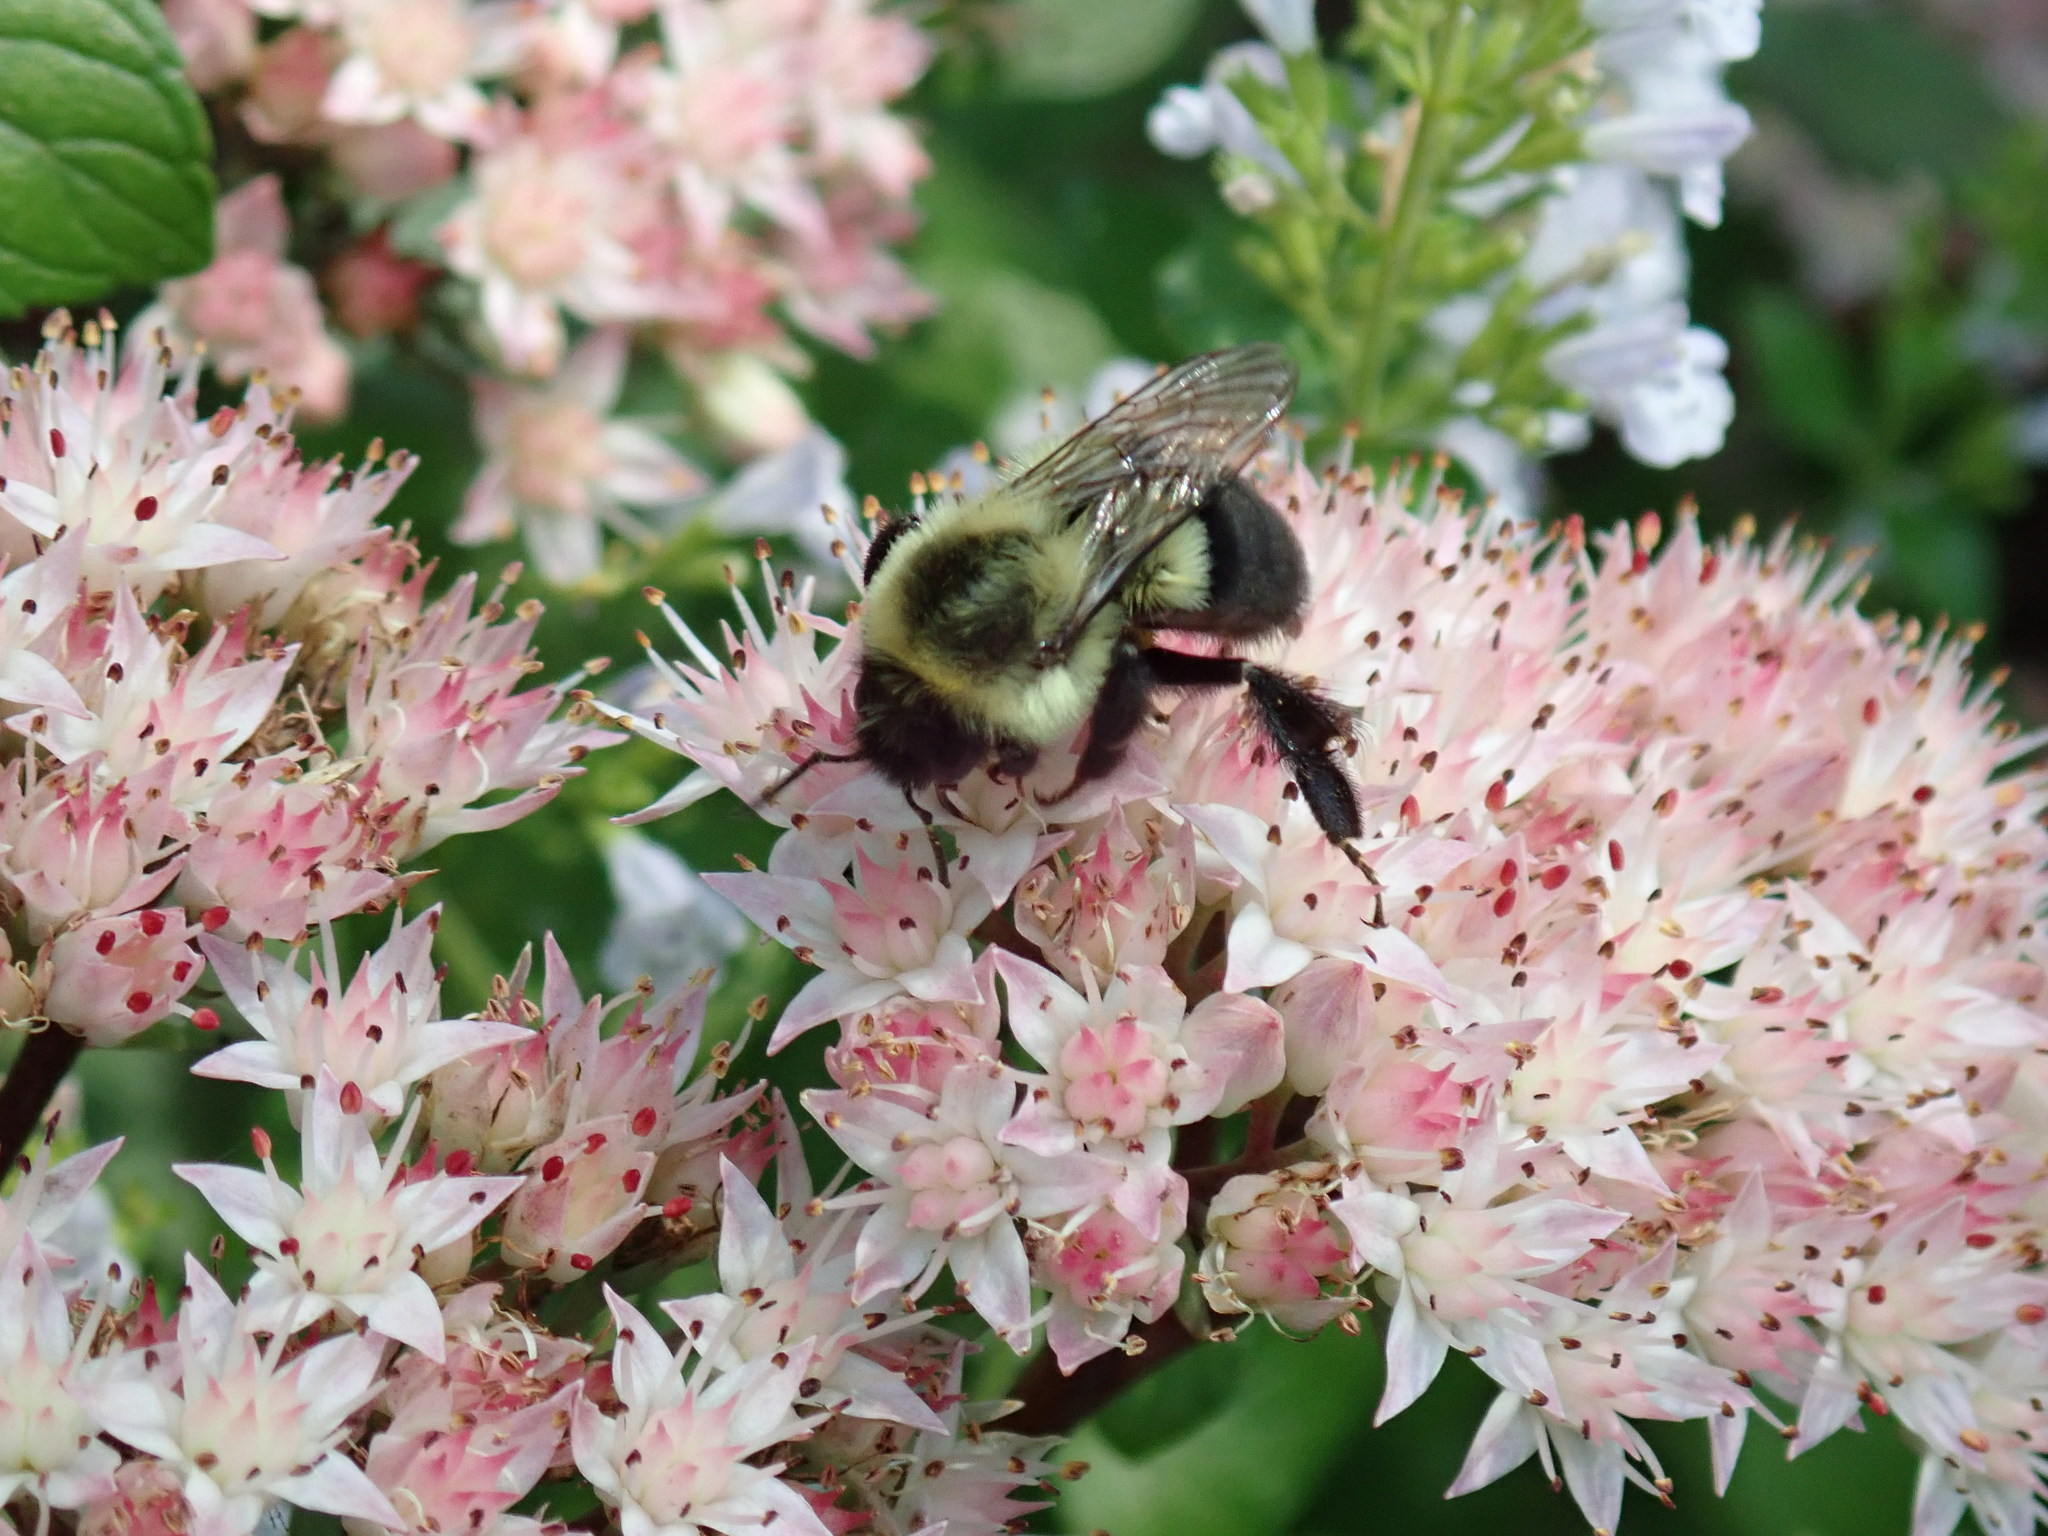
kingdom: Animalia
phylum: Arthropoda
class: Insecta
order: Hymenoptera
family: Apidae
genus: Bombus
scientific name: Bombus impatiens
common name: Common eastern bumble bee
